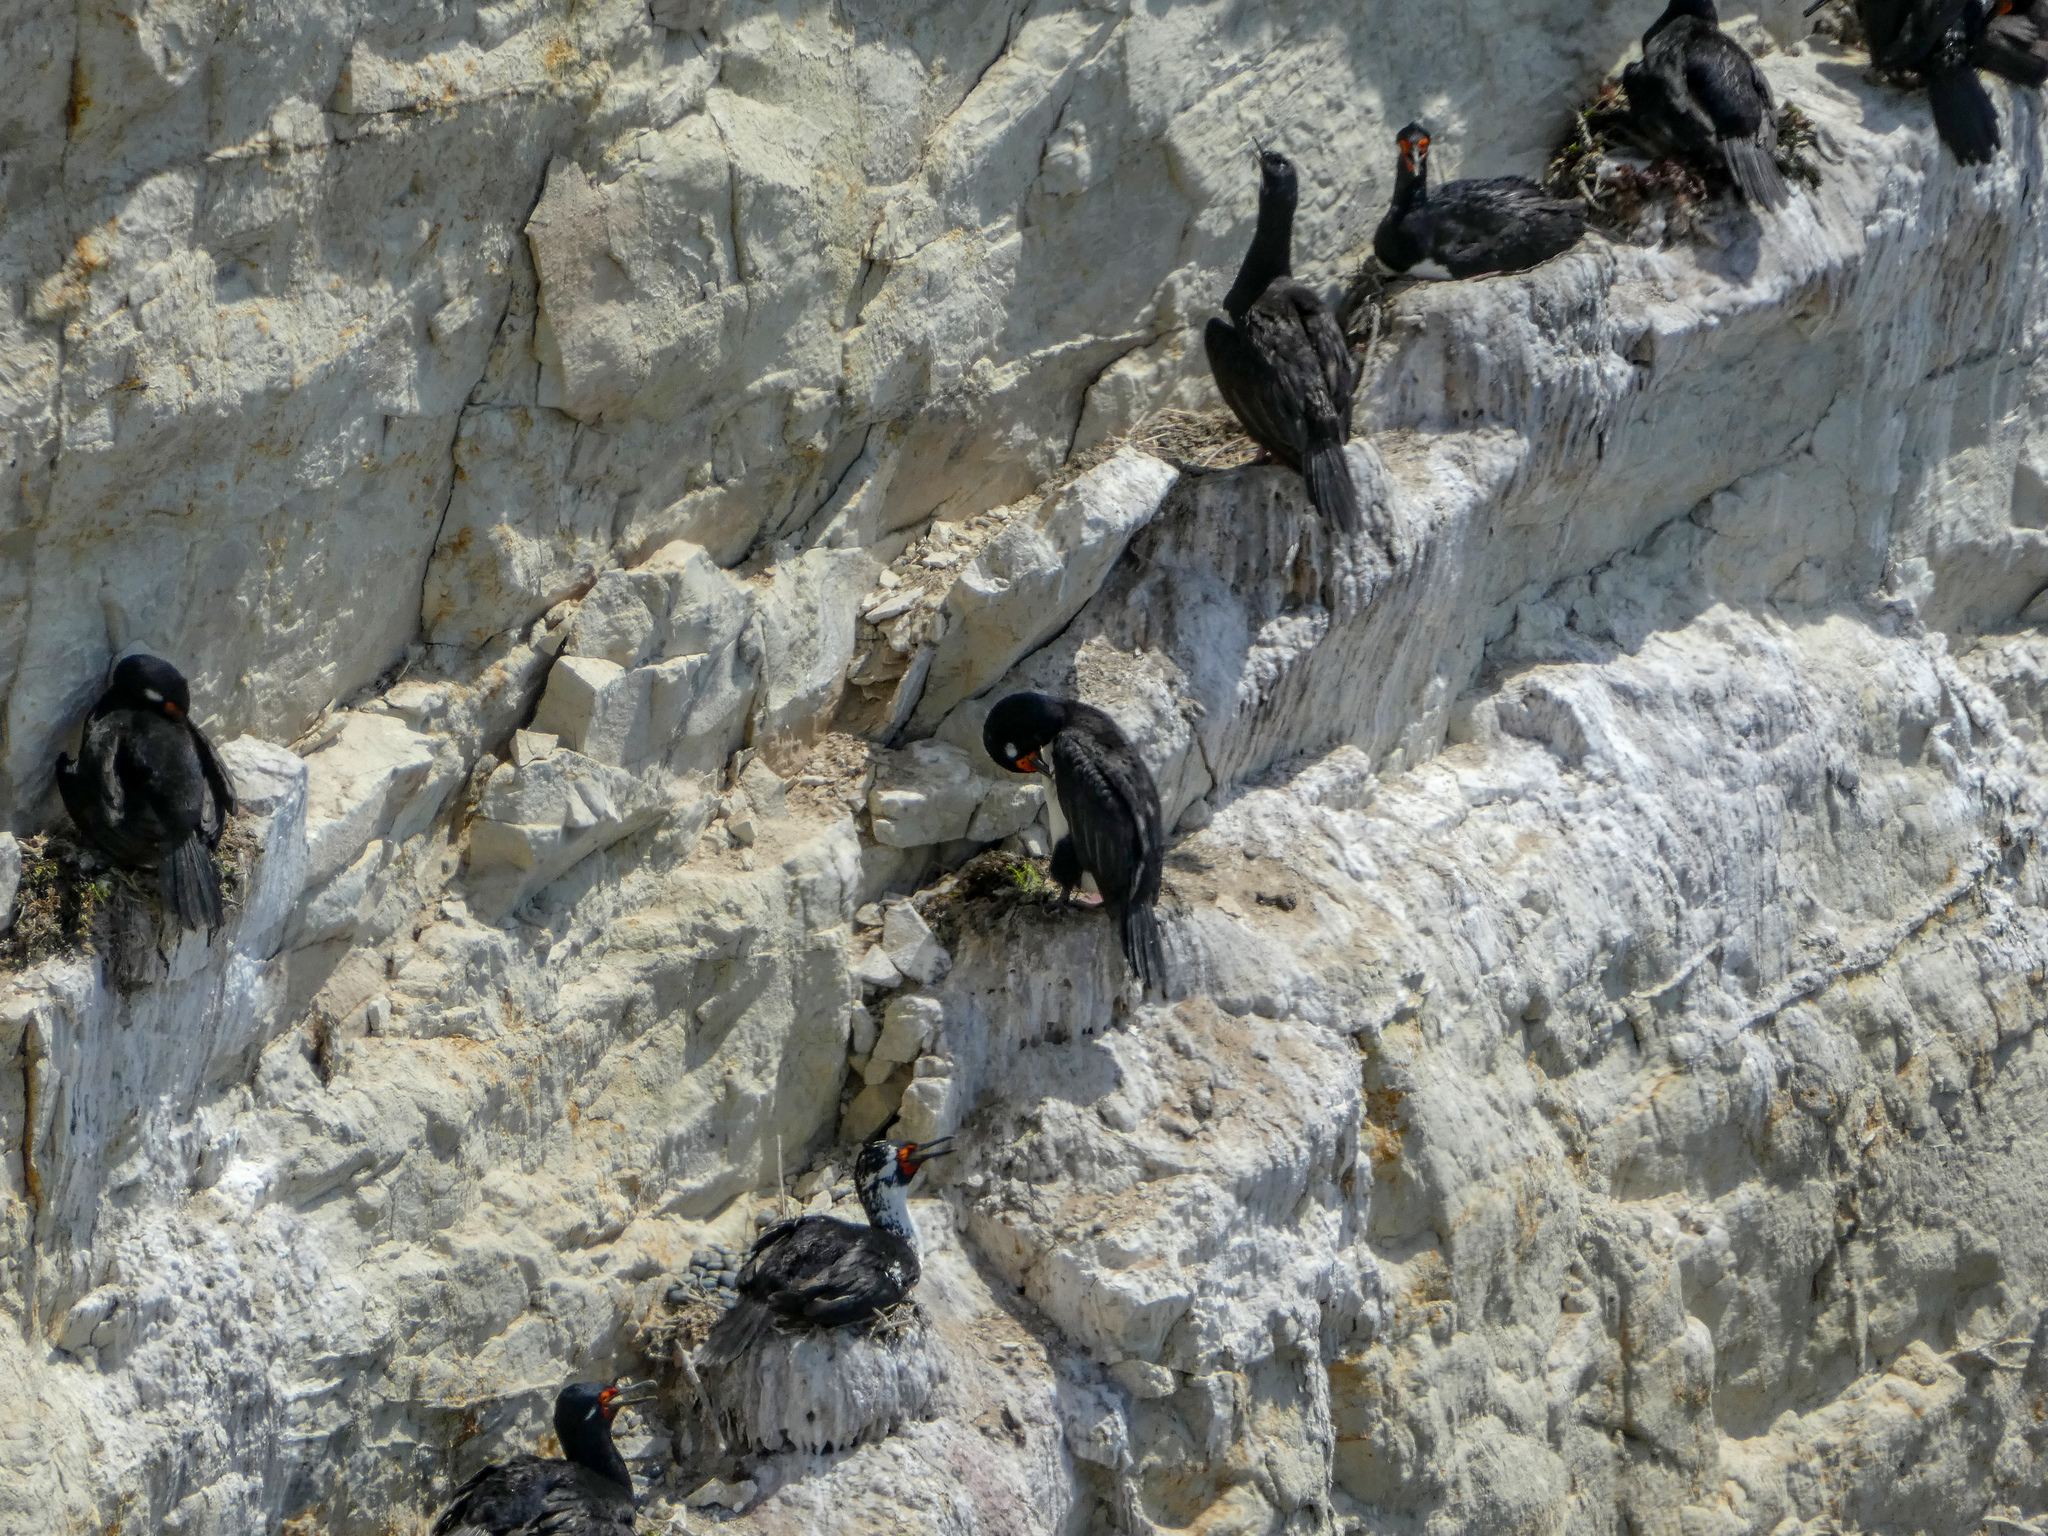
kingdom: Animalia
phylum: Chordata
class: Aves
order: Suliformes
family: Phalacrocoracidae
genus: Phalacrocorax
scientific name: Phalacrocorax magellanicus
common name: Rock shag
